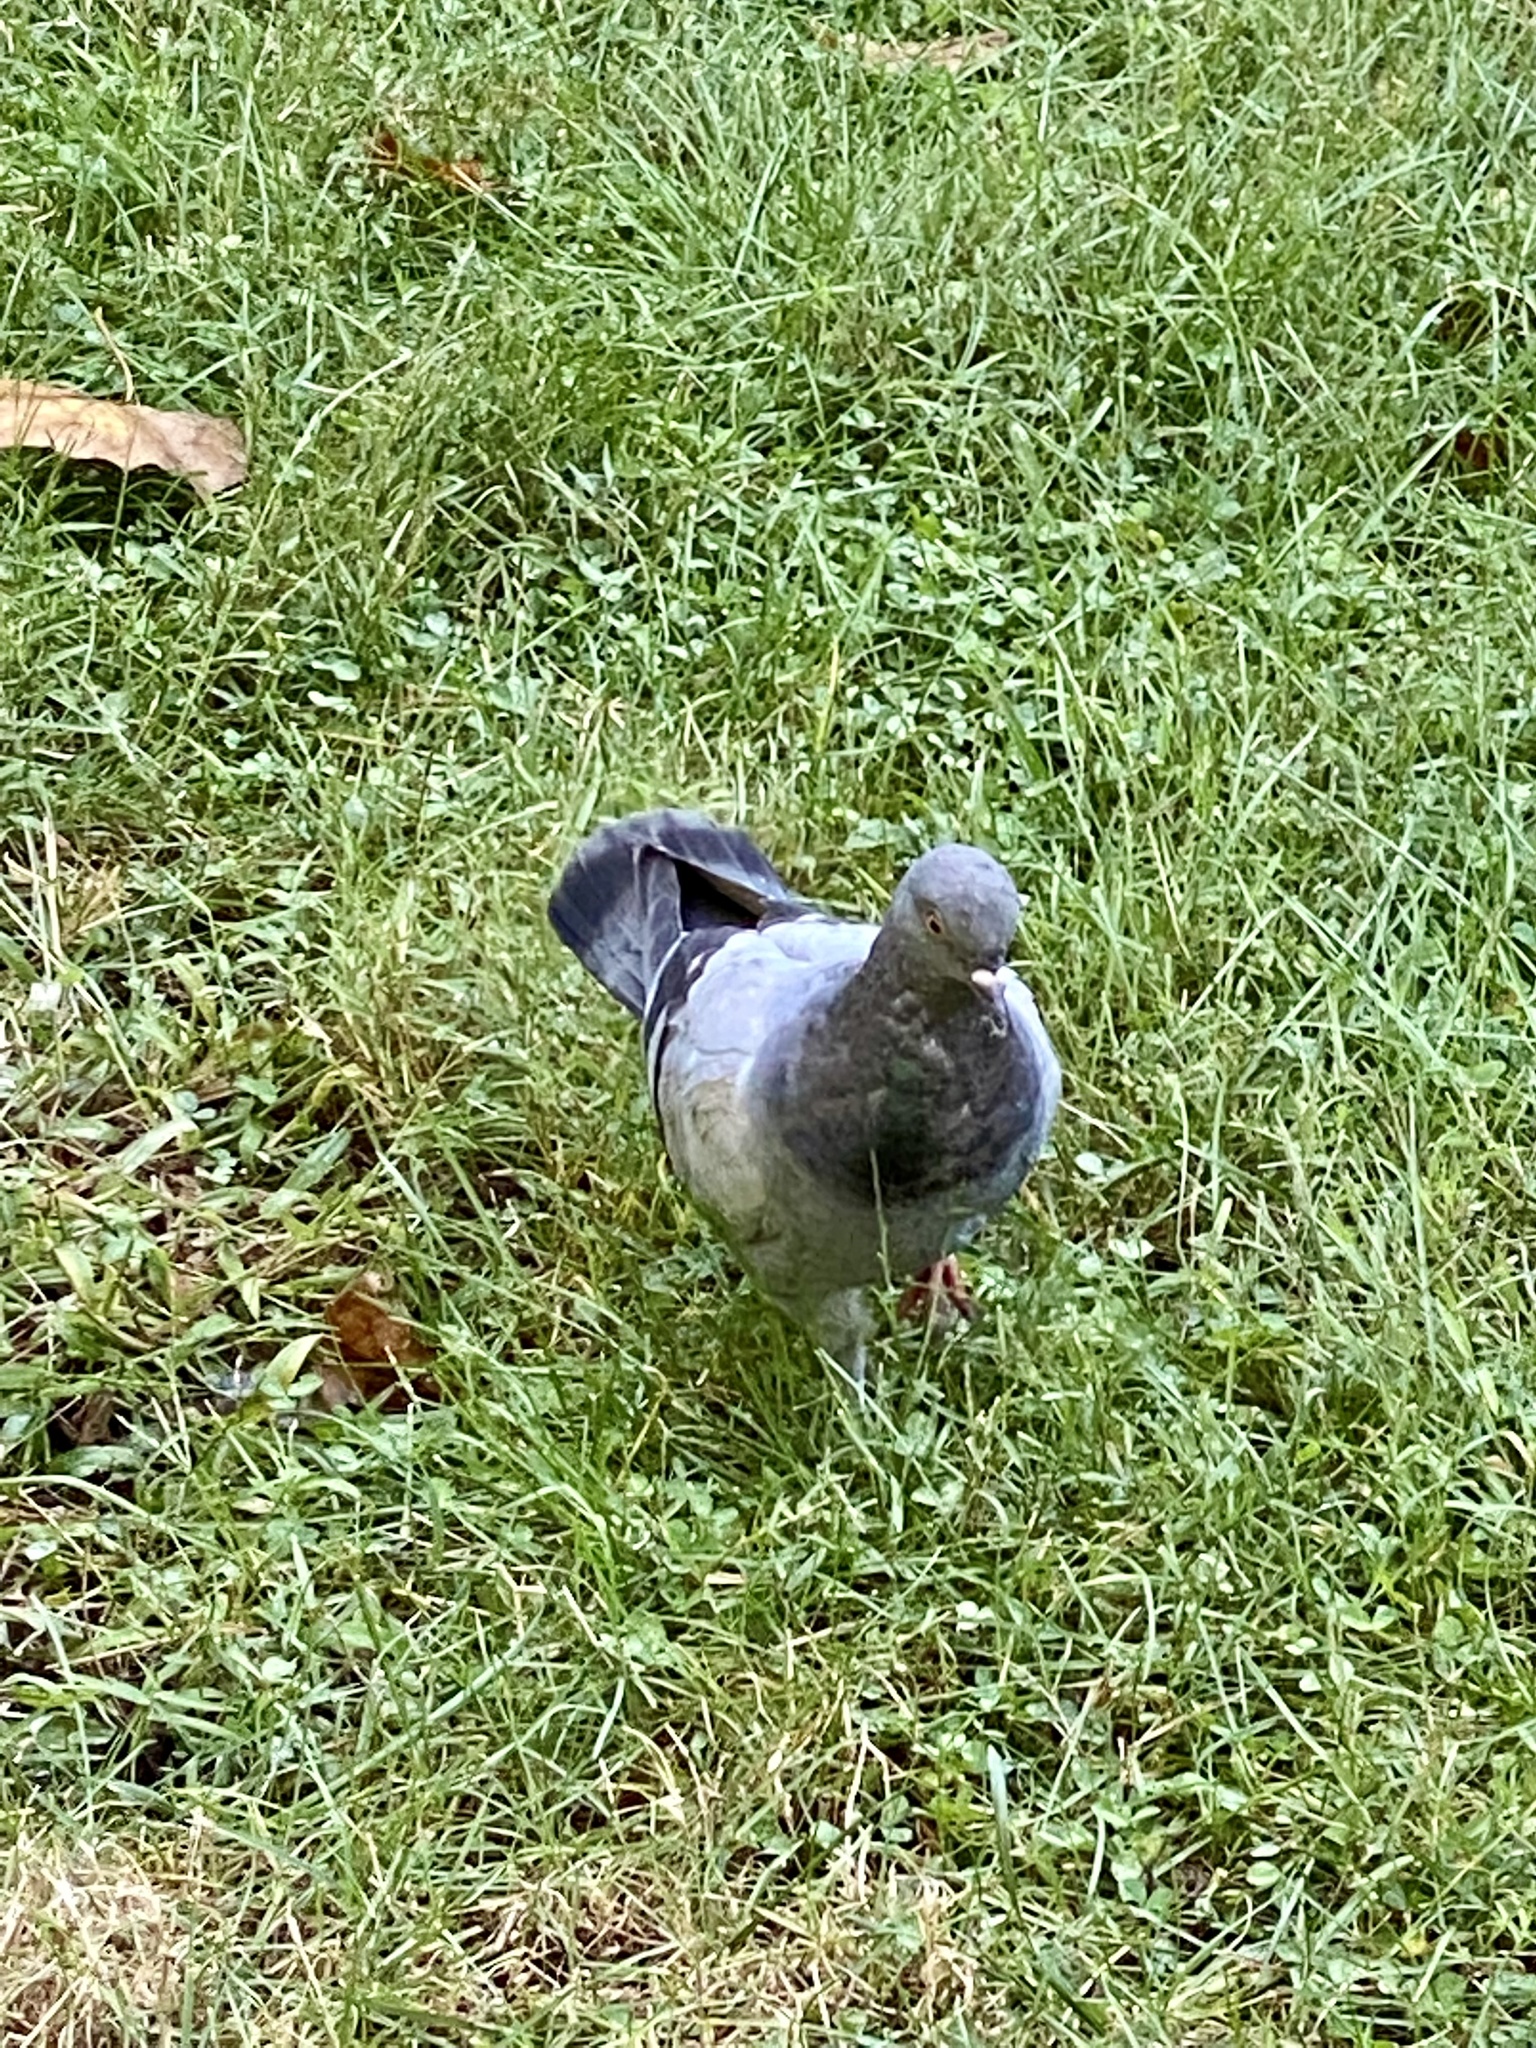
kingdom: Animalia
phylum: Chordata
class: Aves
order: Columbiformes
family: Columbidae
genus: Columba
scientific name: Columba livia
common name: Rock pigeon
